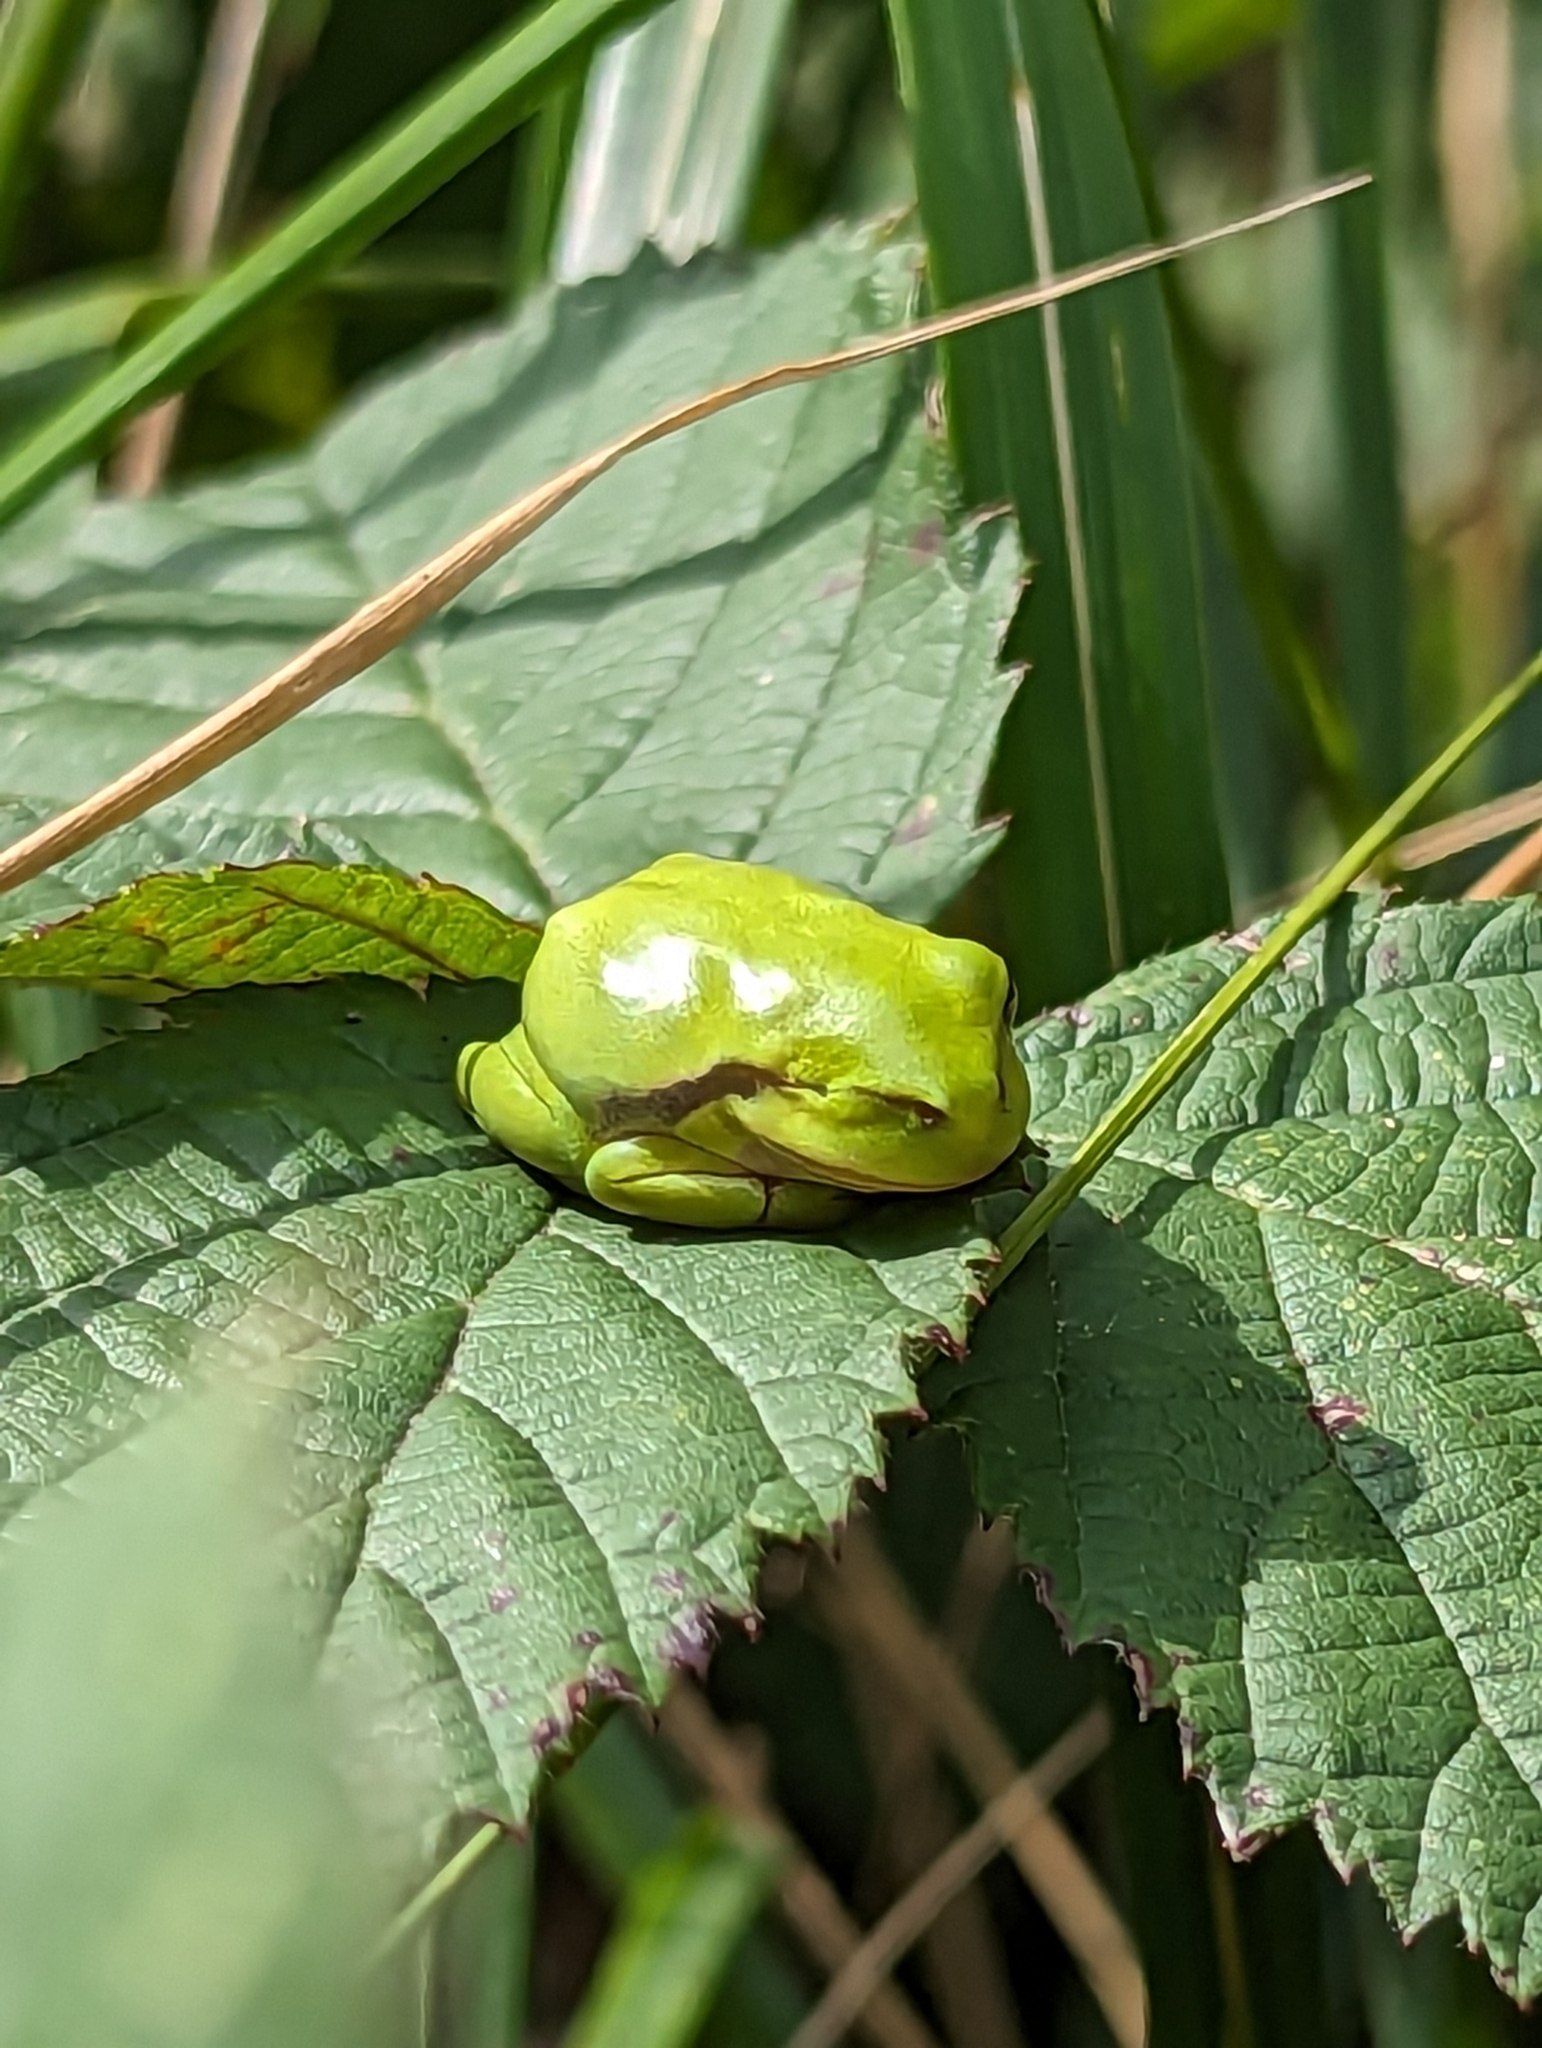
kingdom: Animalia
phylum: Chordata
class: Amphibia
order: Anura
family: Hylidae
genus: Hyla
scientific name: Hyla arborea
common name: Common tree frog
